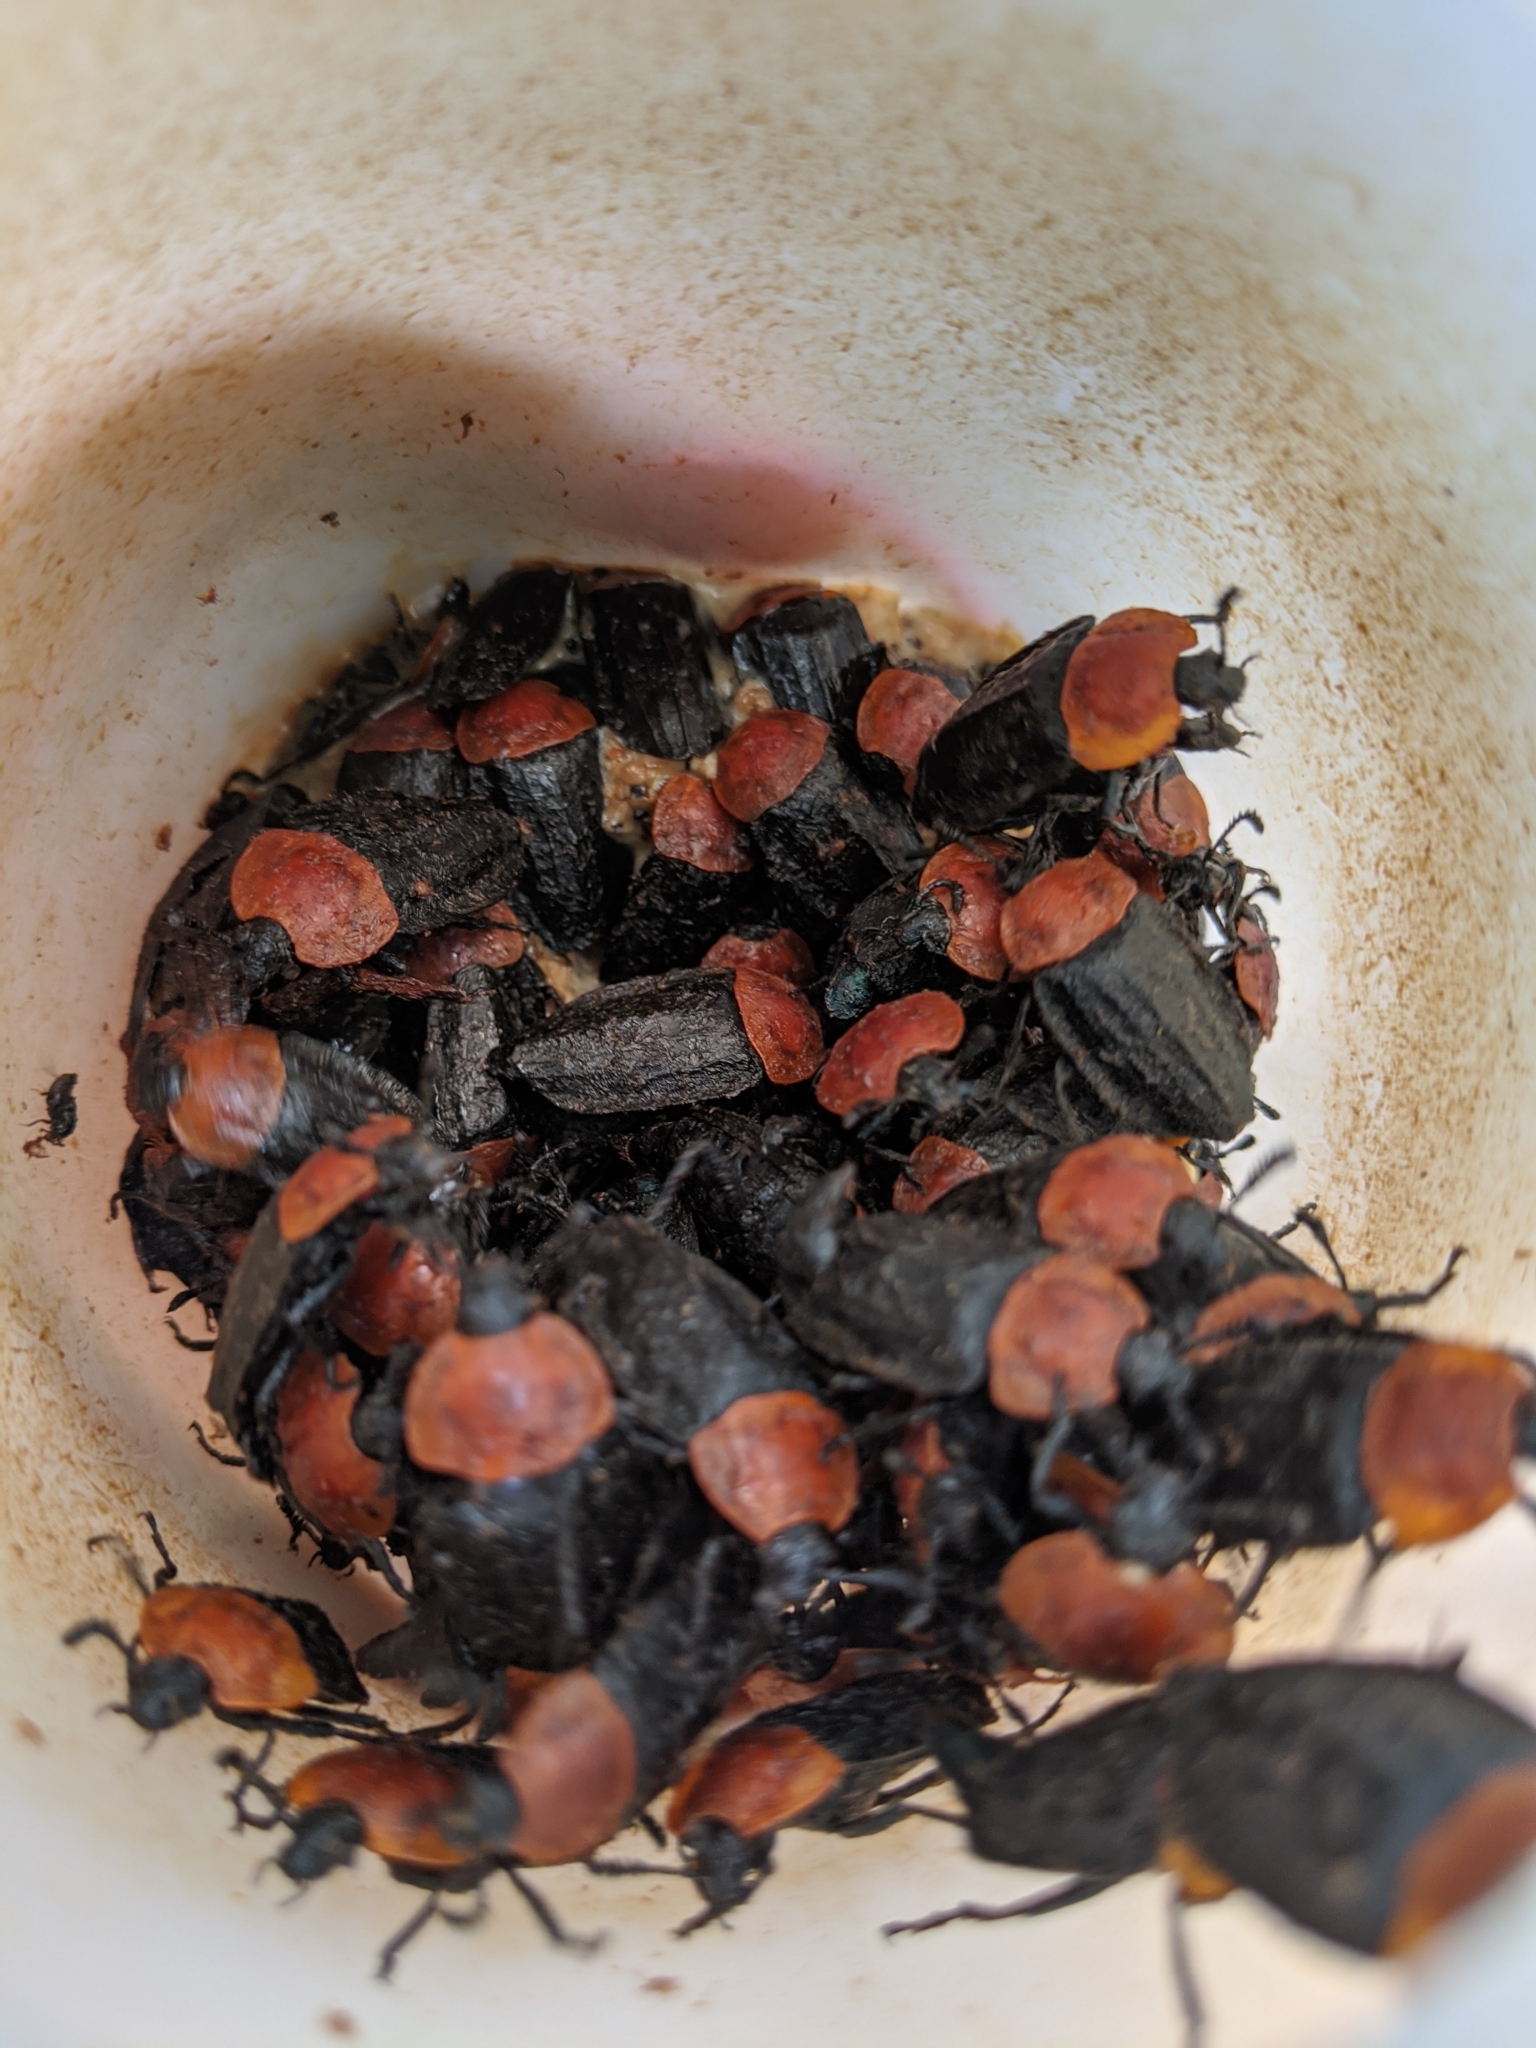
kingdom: Animalia
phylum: Arthropoda
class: Insecta
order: Coleoptera
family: Staphylinidae
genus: Necrophila
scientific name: Necrophila cyaneocephala
